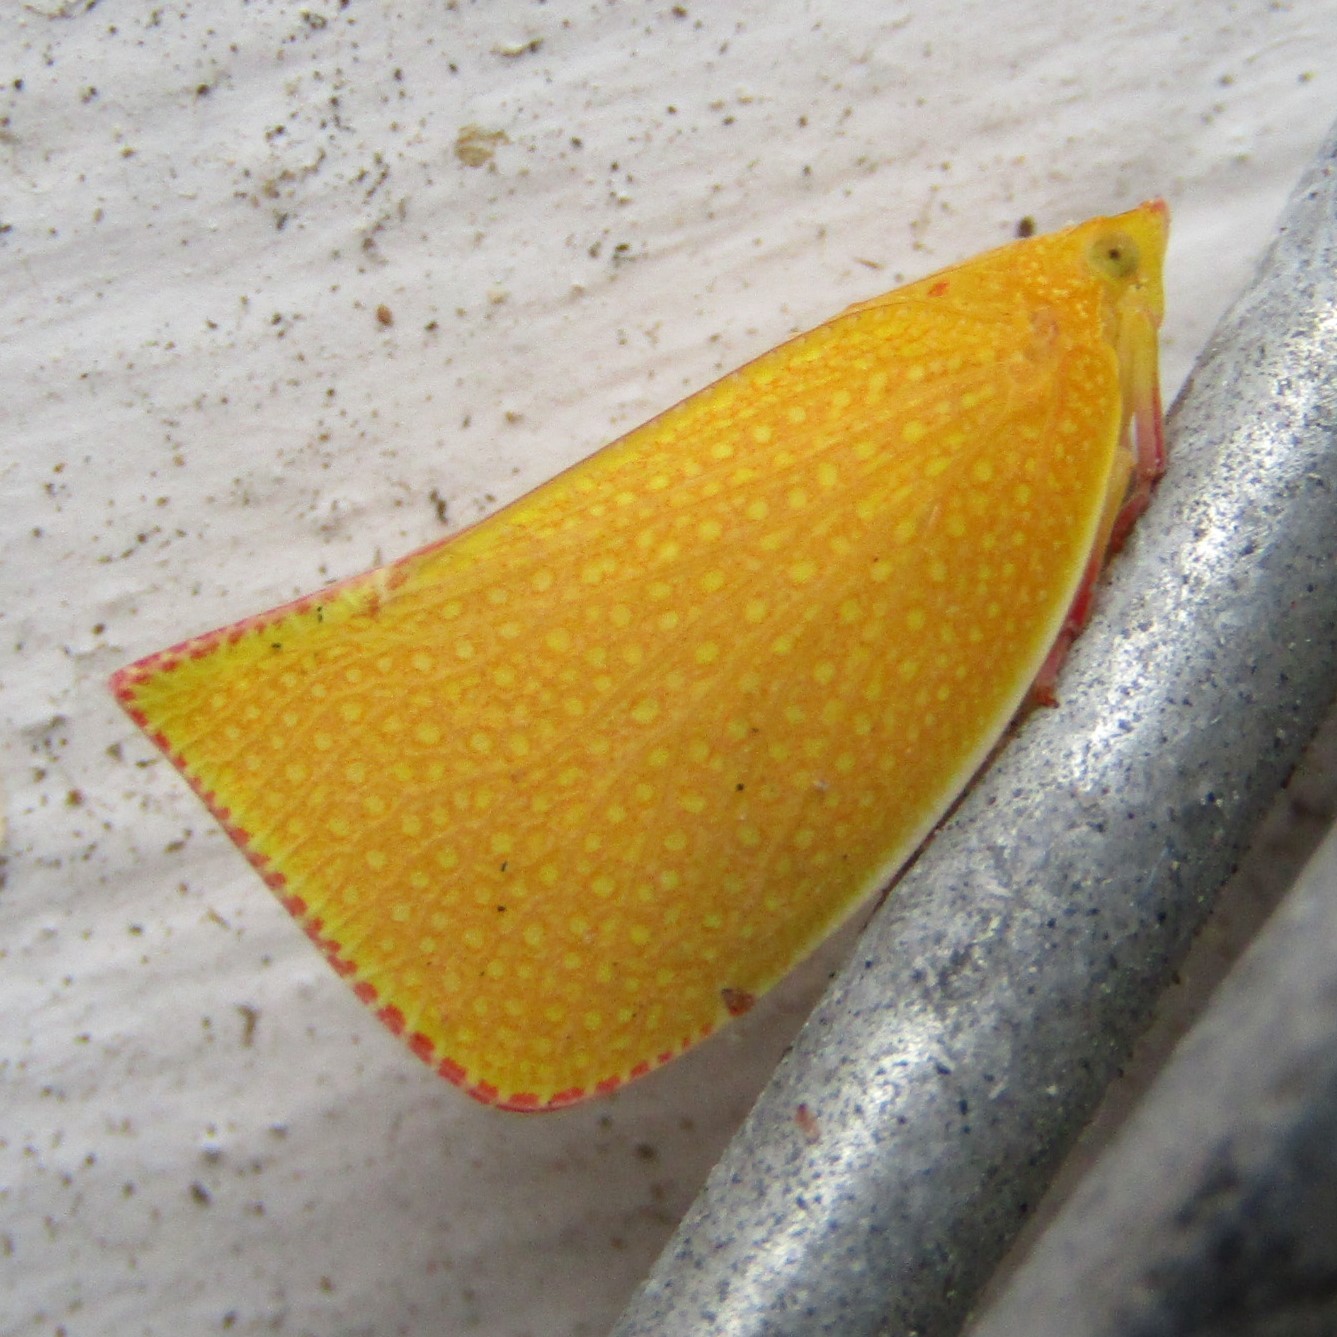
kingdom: Animalia
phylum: Arthropoda
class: Insecta
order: Hemiptera
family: Flatidae
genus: Siphanta
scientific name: Siphanta acuta
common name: Torpedo bug
